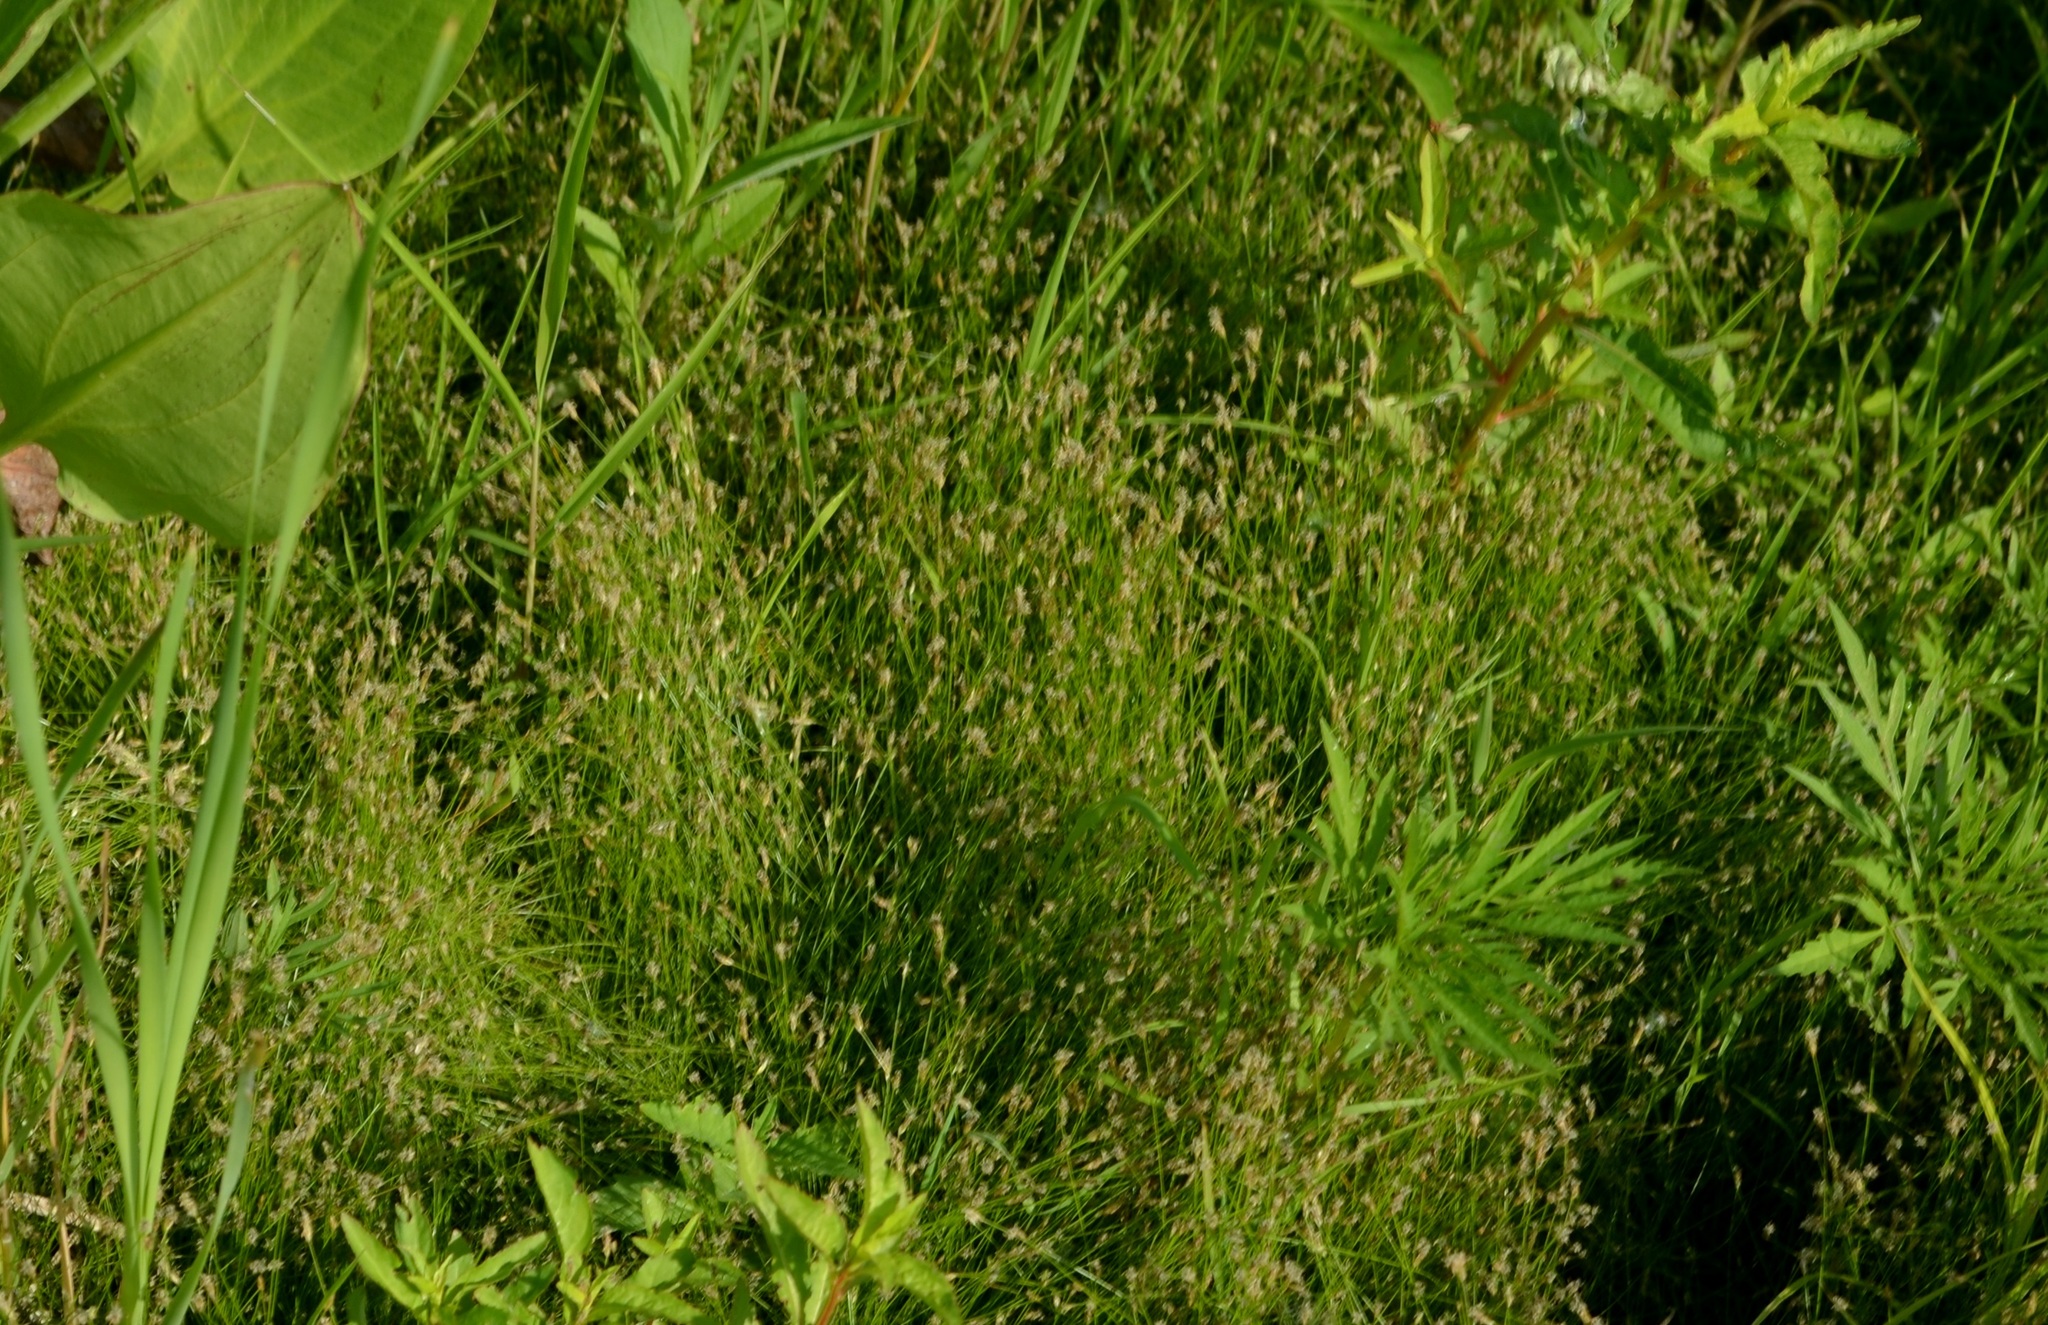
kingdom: Plantae
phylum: Tracheophyta
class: Liliopsida
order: Poales
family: Cyperaceae
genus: Eleocharis
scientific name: Eleocharis acicularis
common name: Needle spike-rush
